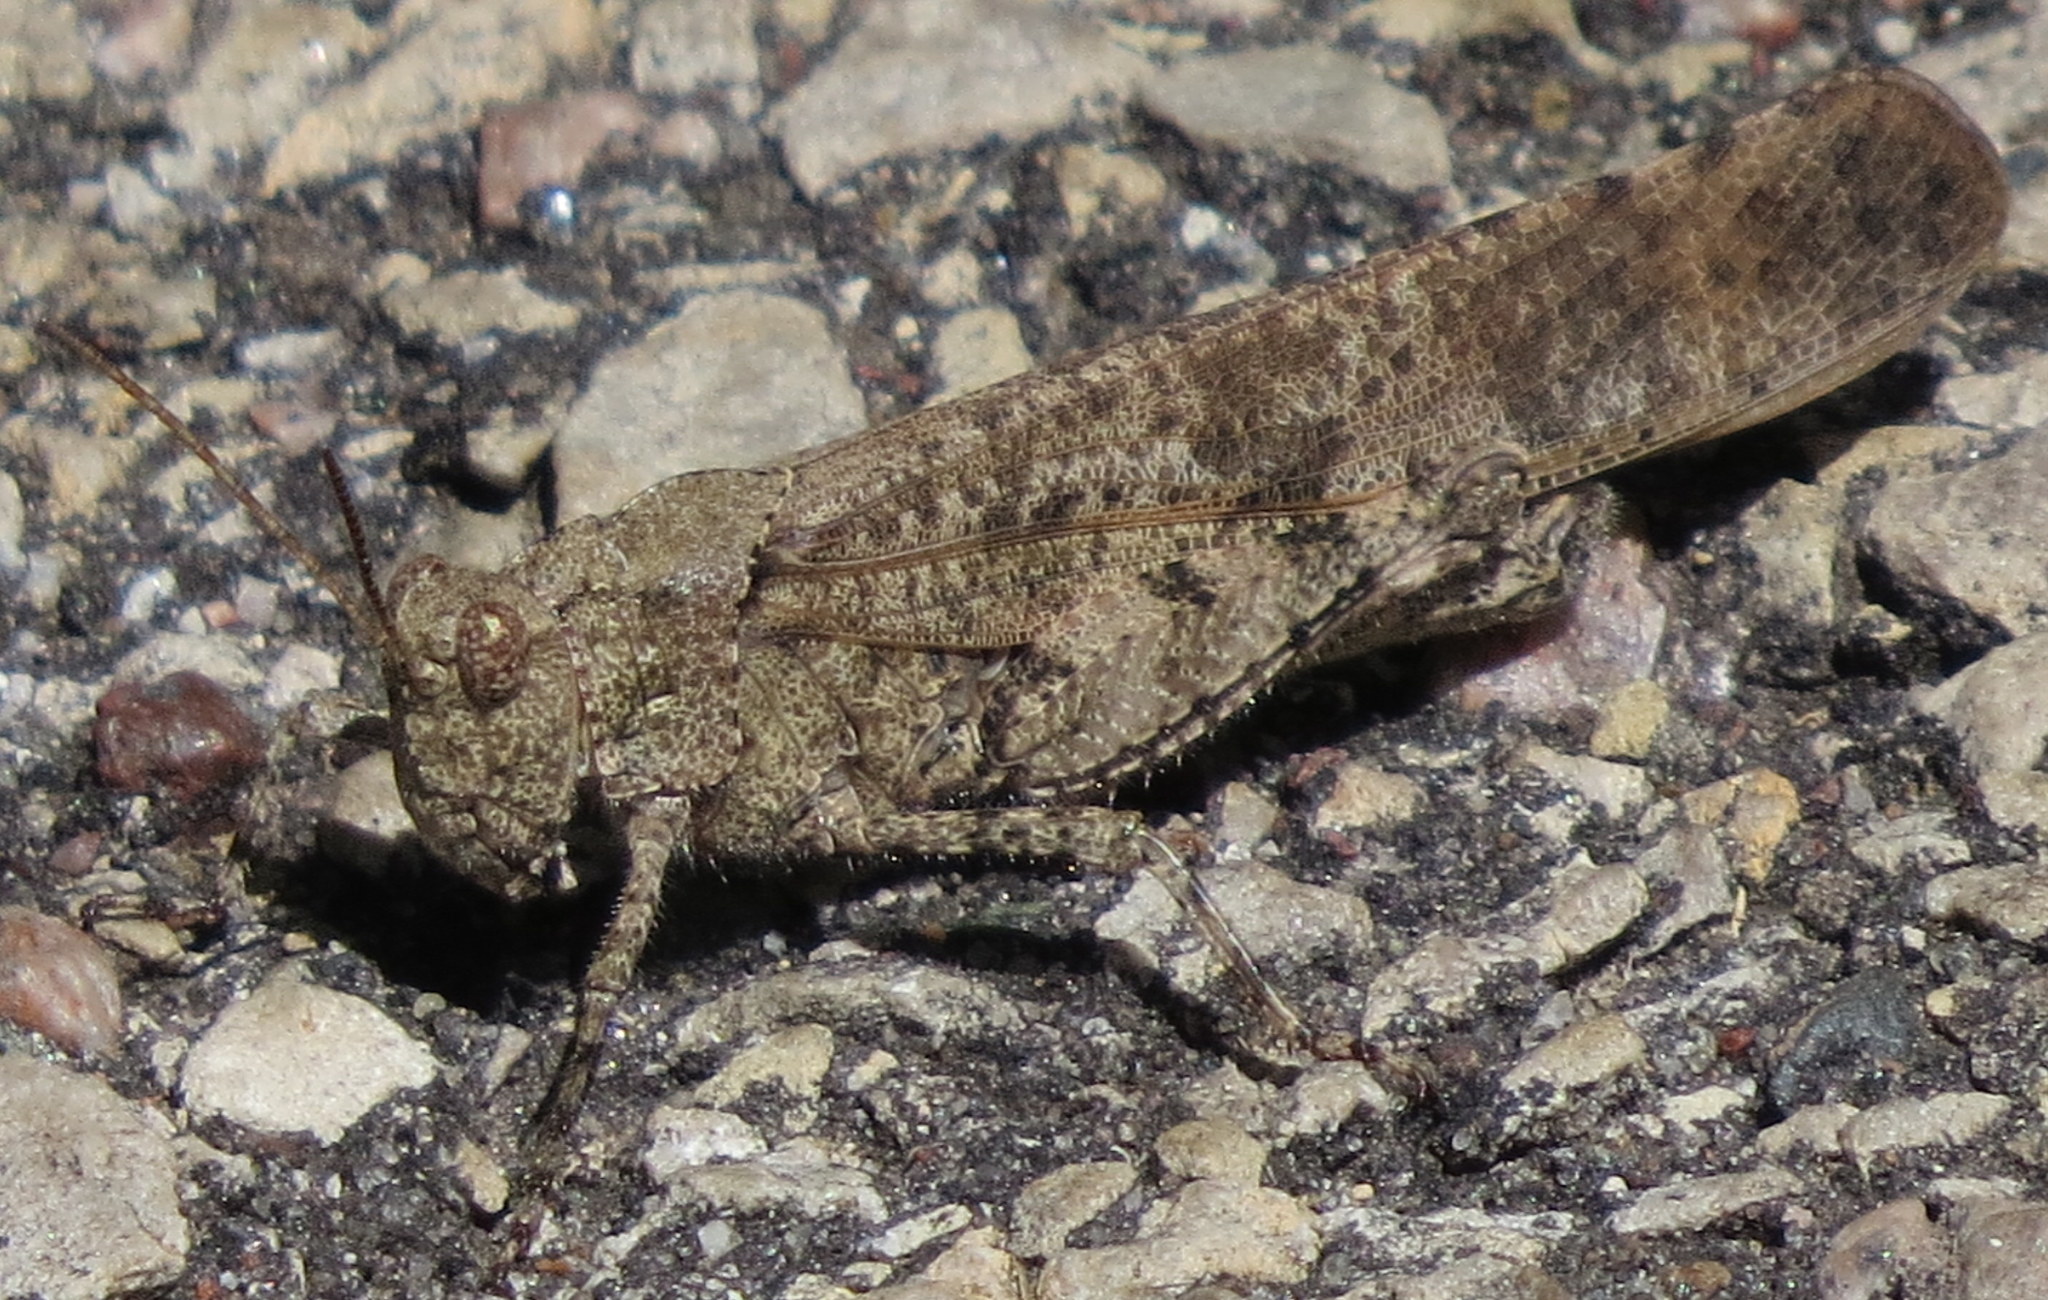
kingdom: Animalia
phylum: Arthropoda
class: Insecta
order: Orthoptera
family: Acrididae
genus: Dissosteira
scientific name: Dissosteira carolina
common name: Carolina grasshopper
